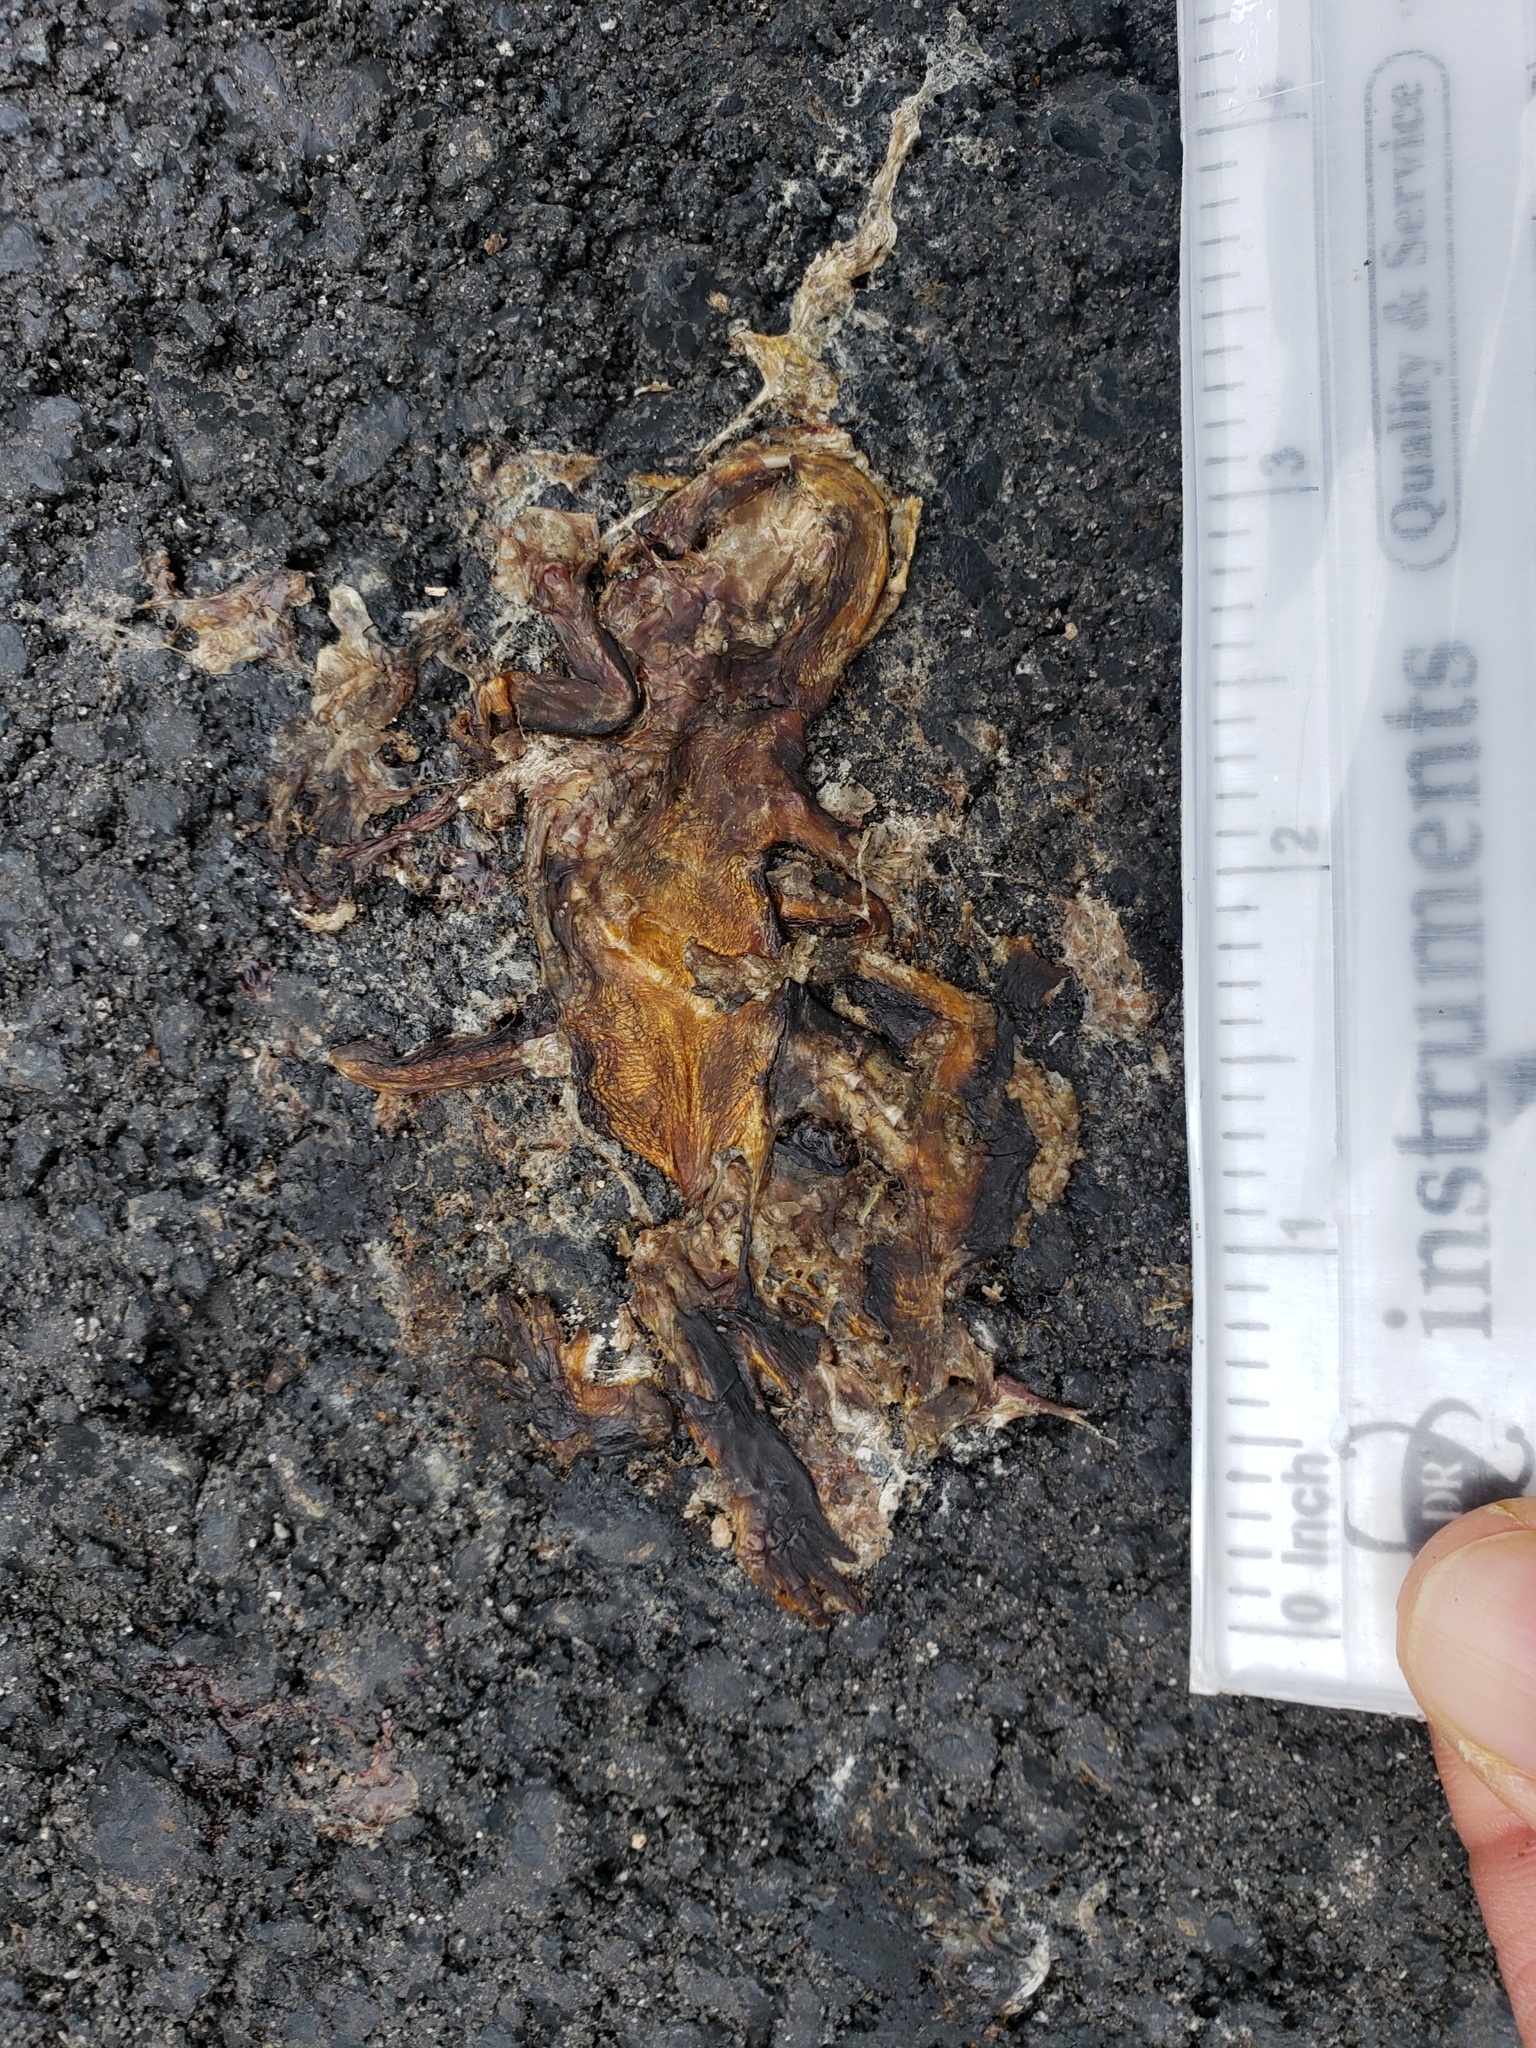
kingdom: Animalia
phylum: Chordata
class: Amphibia
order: Caudata
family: Salamandridae
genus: Taricha
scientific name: Taricha
